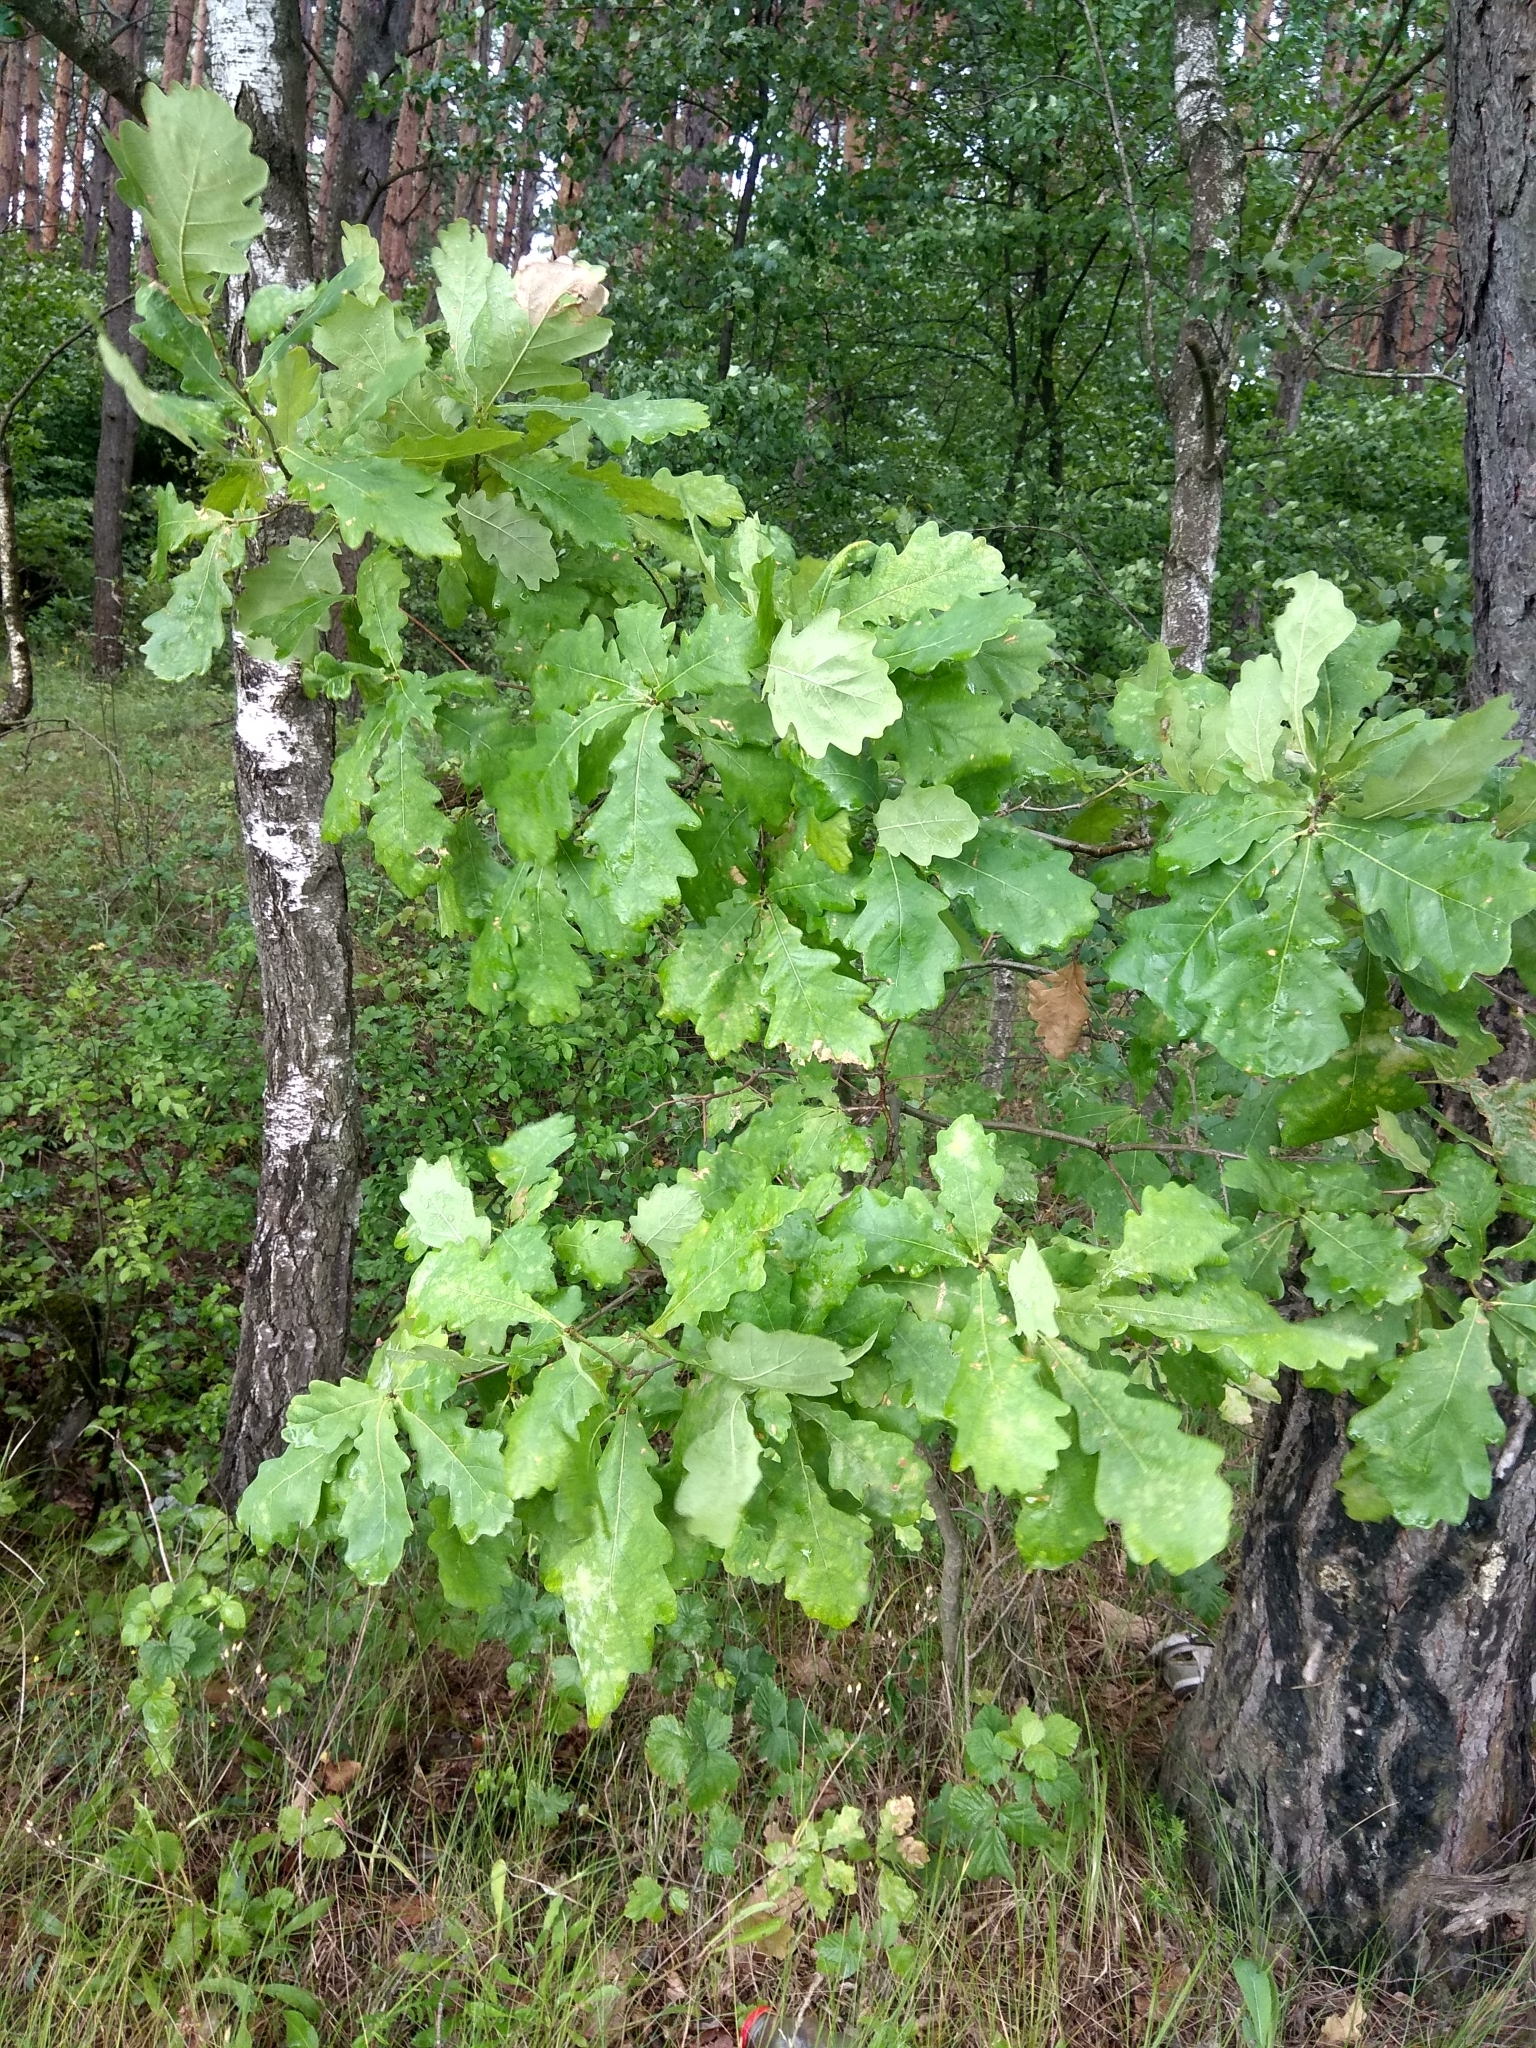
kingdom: Plantae
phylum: Tracheophyta
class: Magnoliopsida
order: Fagales
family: Fagaceae
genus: Quercus
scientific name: Quercus robur
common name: Pedunculate oak
